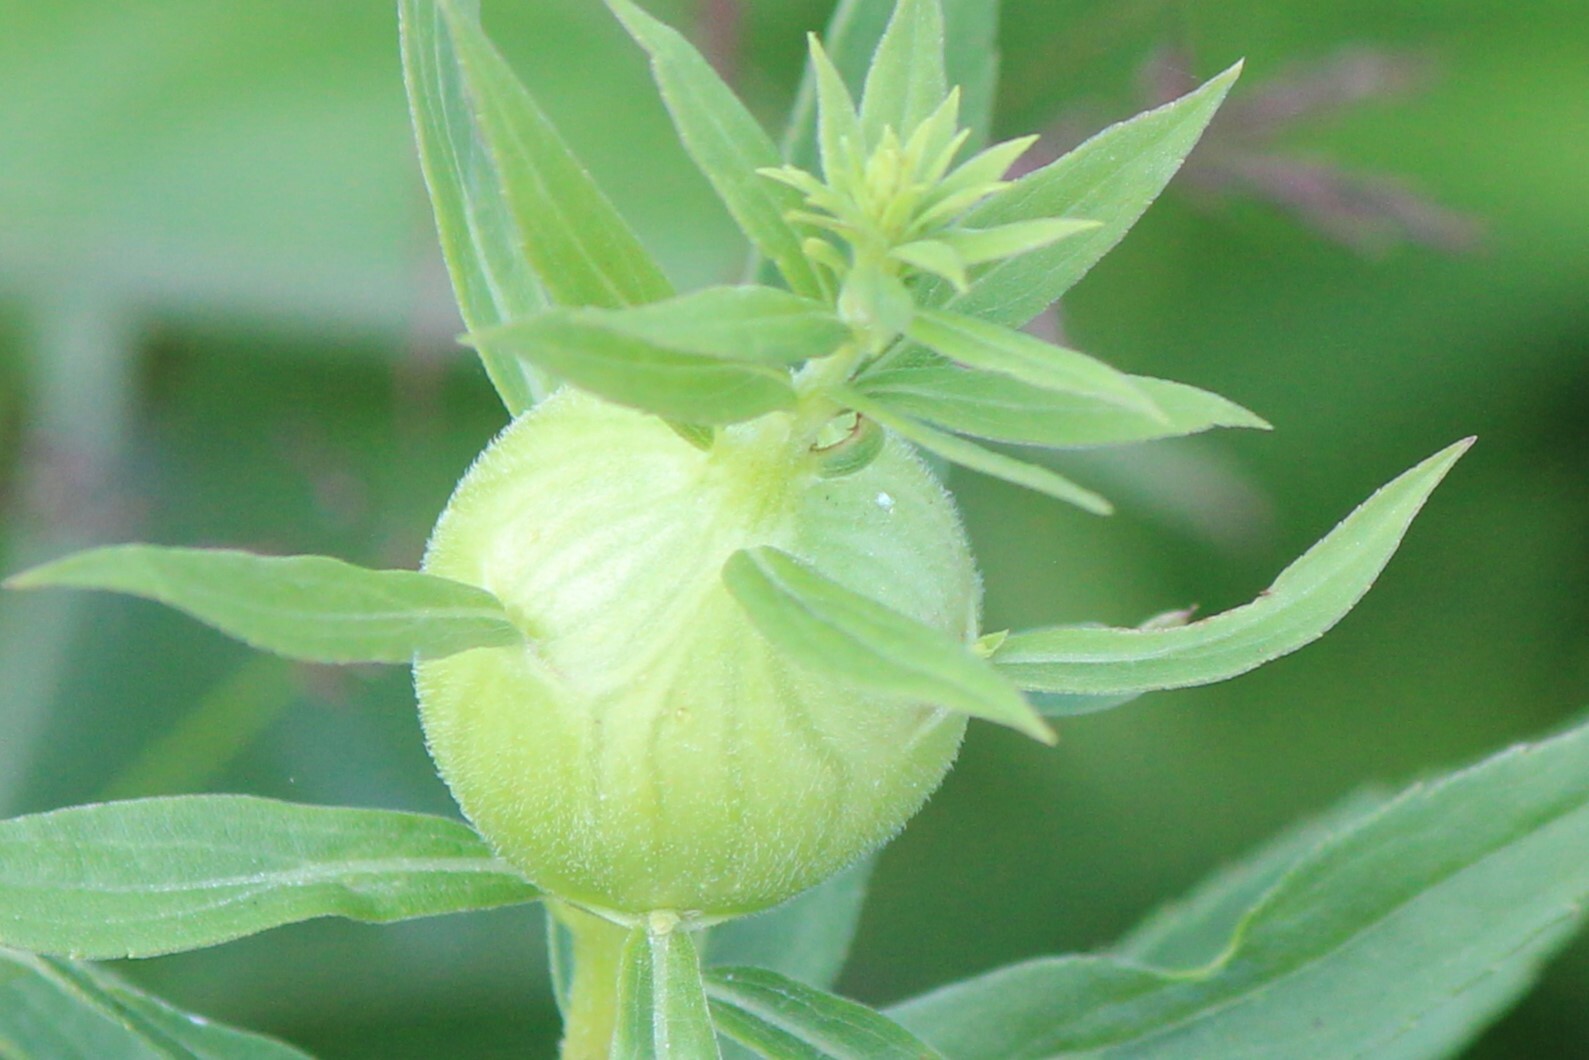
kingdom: Animalia
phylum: Arthropoda
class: Insecta
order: Diptera
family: Tephritidae
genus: Eurosta
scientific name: Eurosta solidaginis
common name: Goldenrod gall fly
